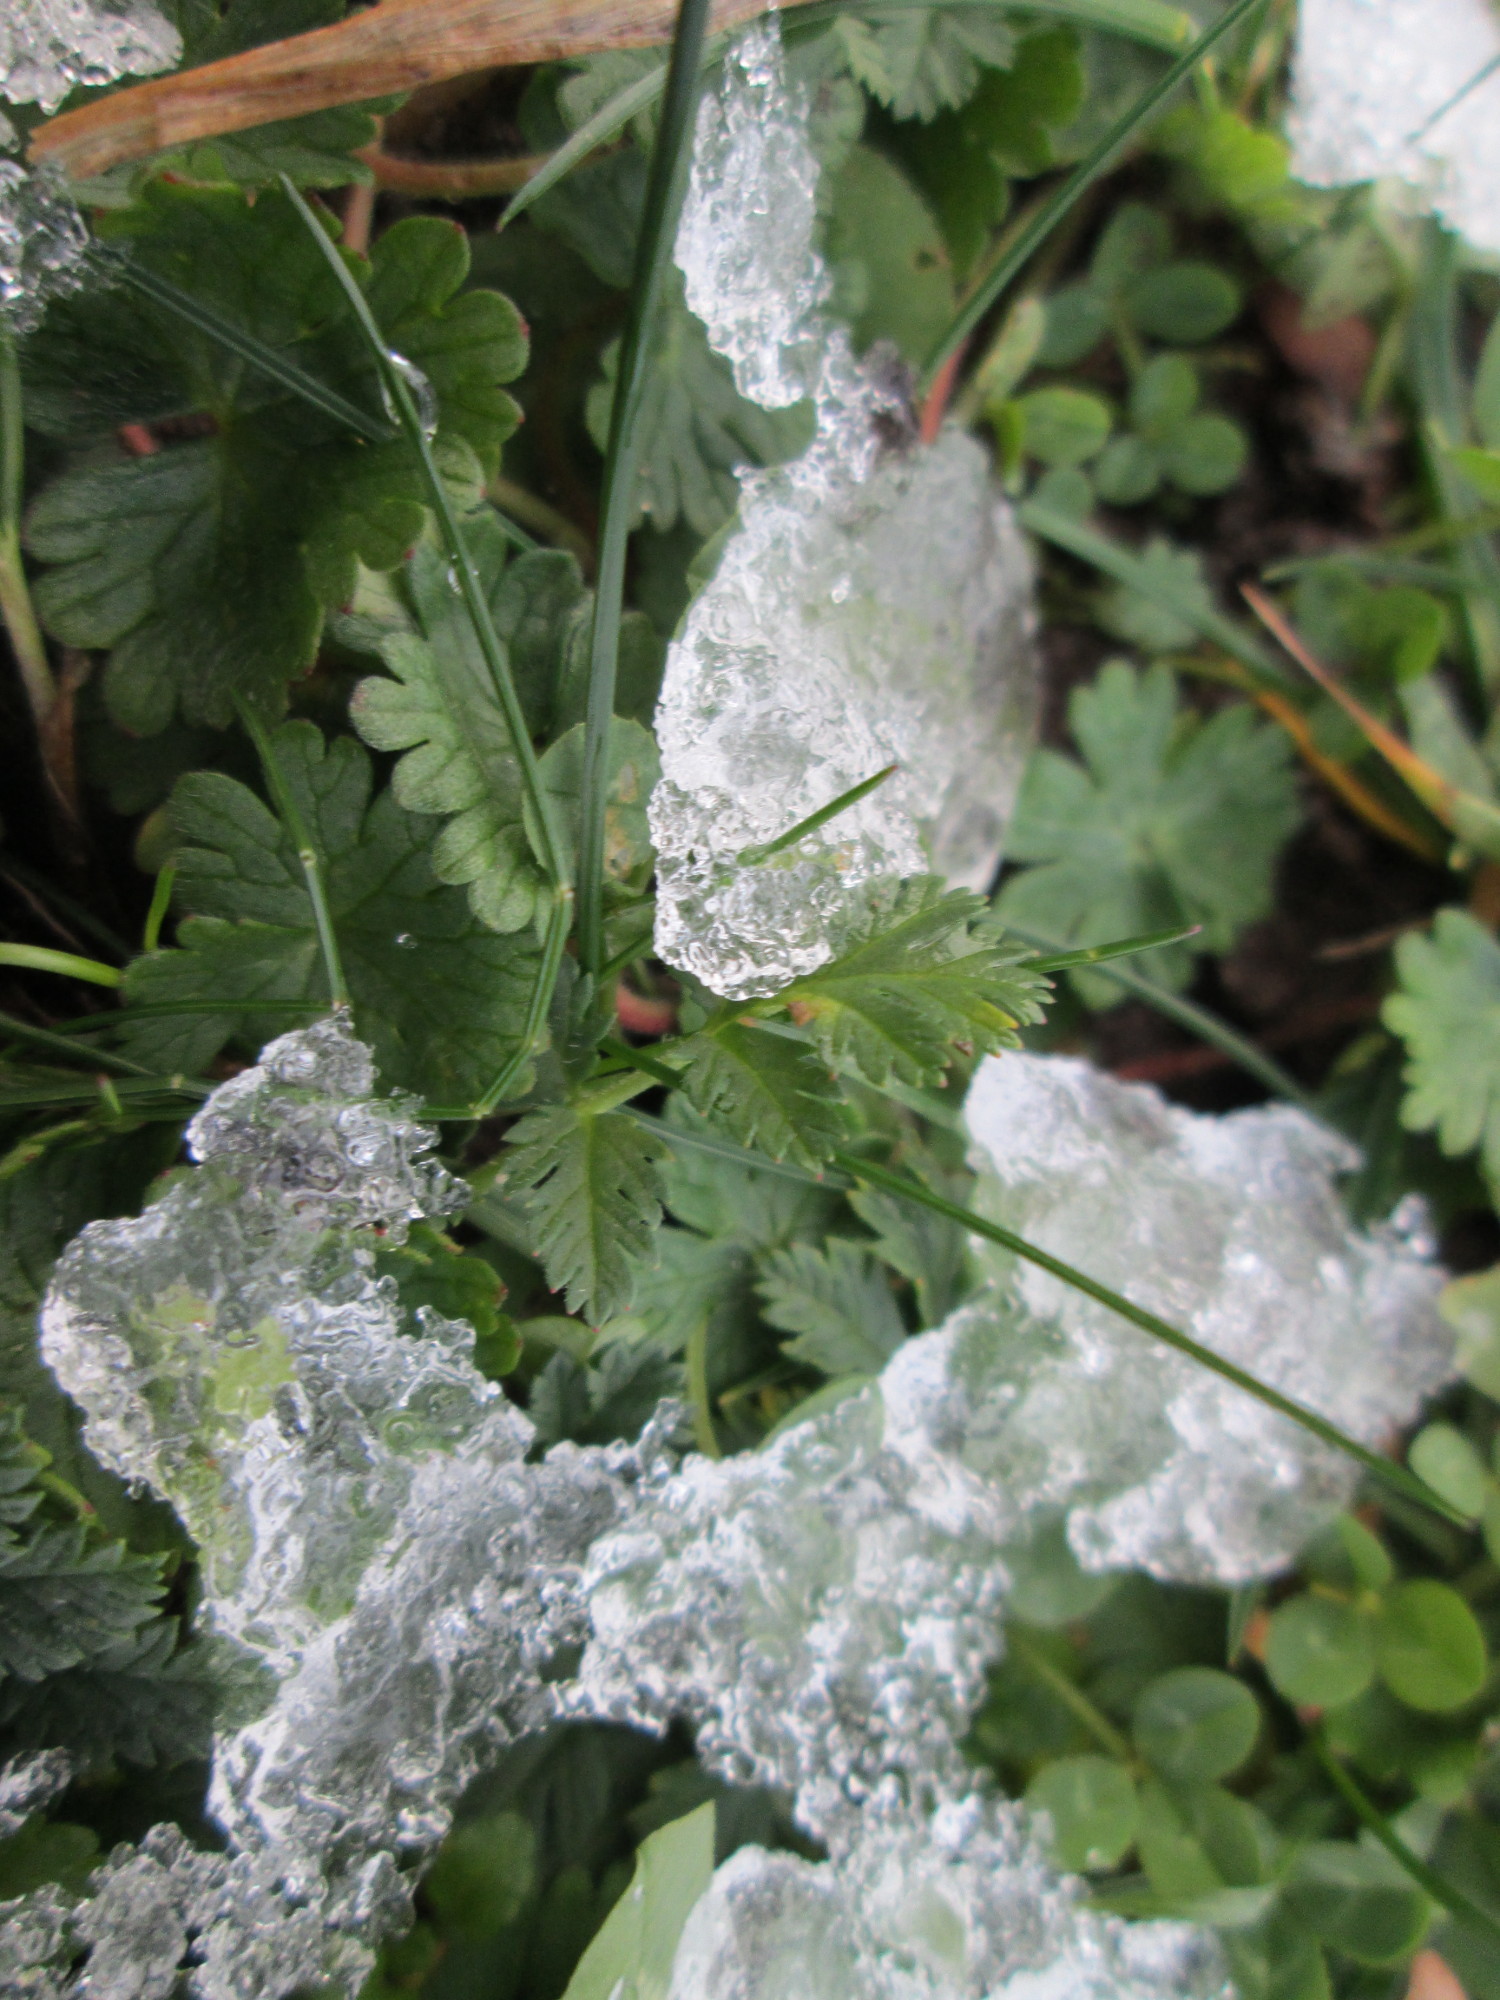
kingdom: Plantae
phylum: Tracheophyta
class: Magnoliopsida
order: Geraniales
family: Geraniaceae
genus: Erodium
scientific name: Erodium cicutarium
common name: Common stork's-bill
